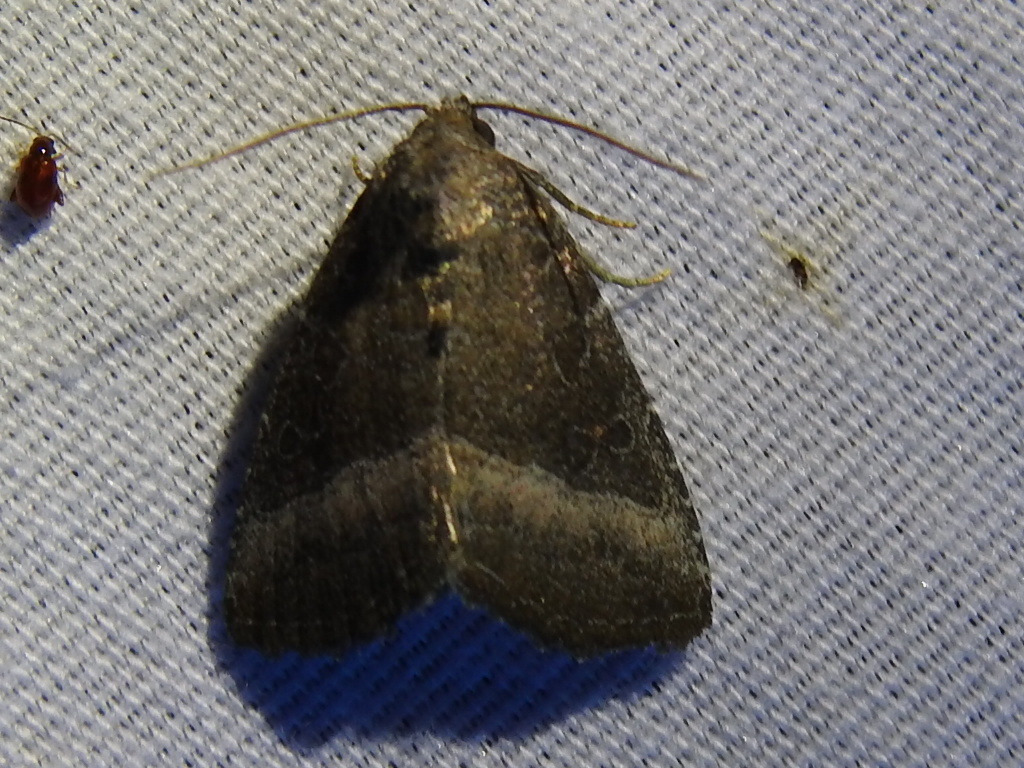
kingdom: Animalia
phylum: Arthropoda
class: Insecta
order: Lepidoptera
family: Noctuidae
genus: Ogdoconta
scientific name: Ogdoconta cinereola
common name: Common pinkband
